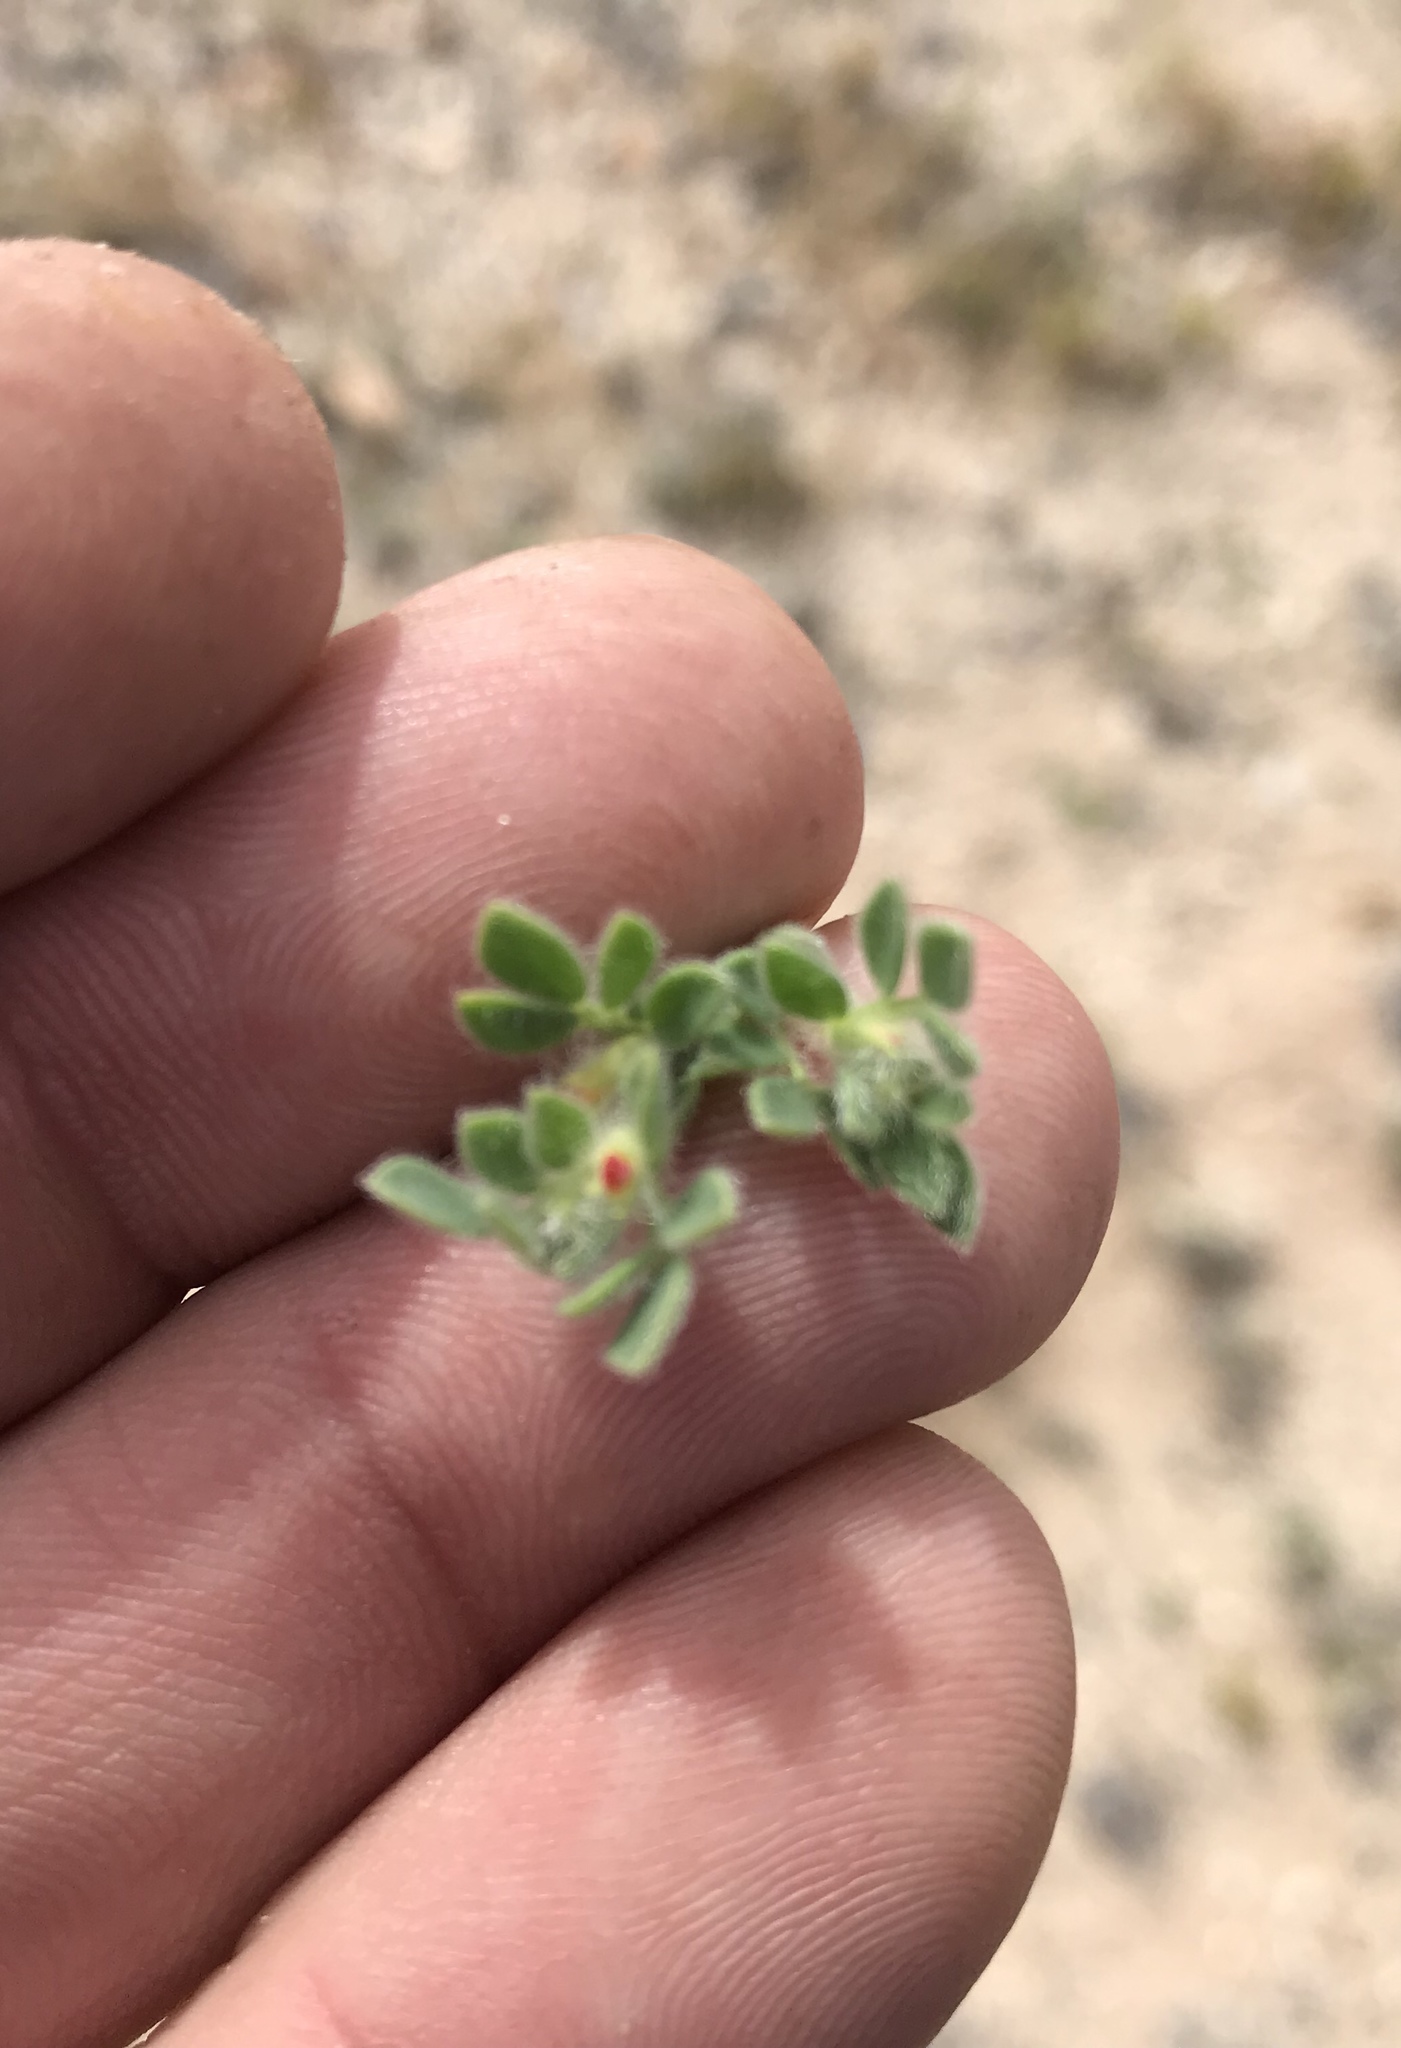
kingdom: Plantae
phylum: Tracheophyta
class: Magnoliopsida
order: Fabales
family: Fabaceae
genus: Acmispon
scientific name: Acmispon brachycarpus
